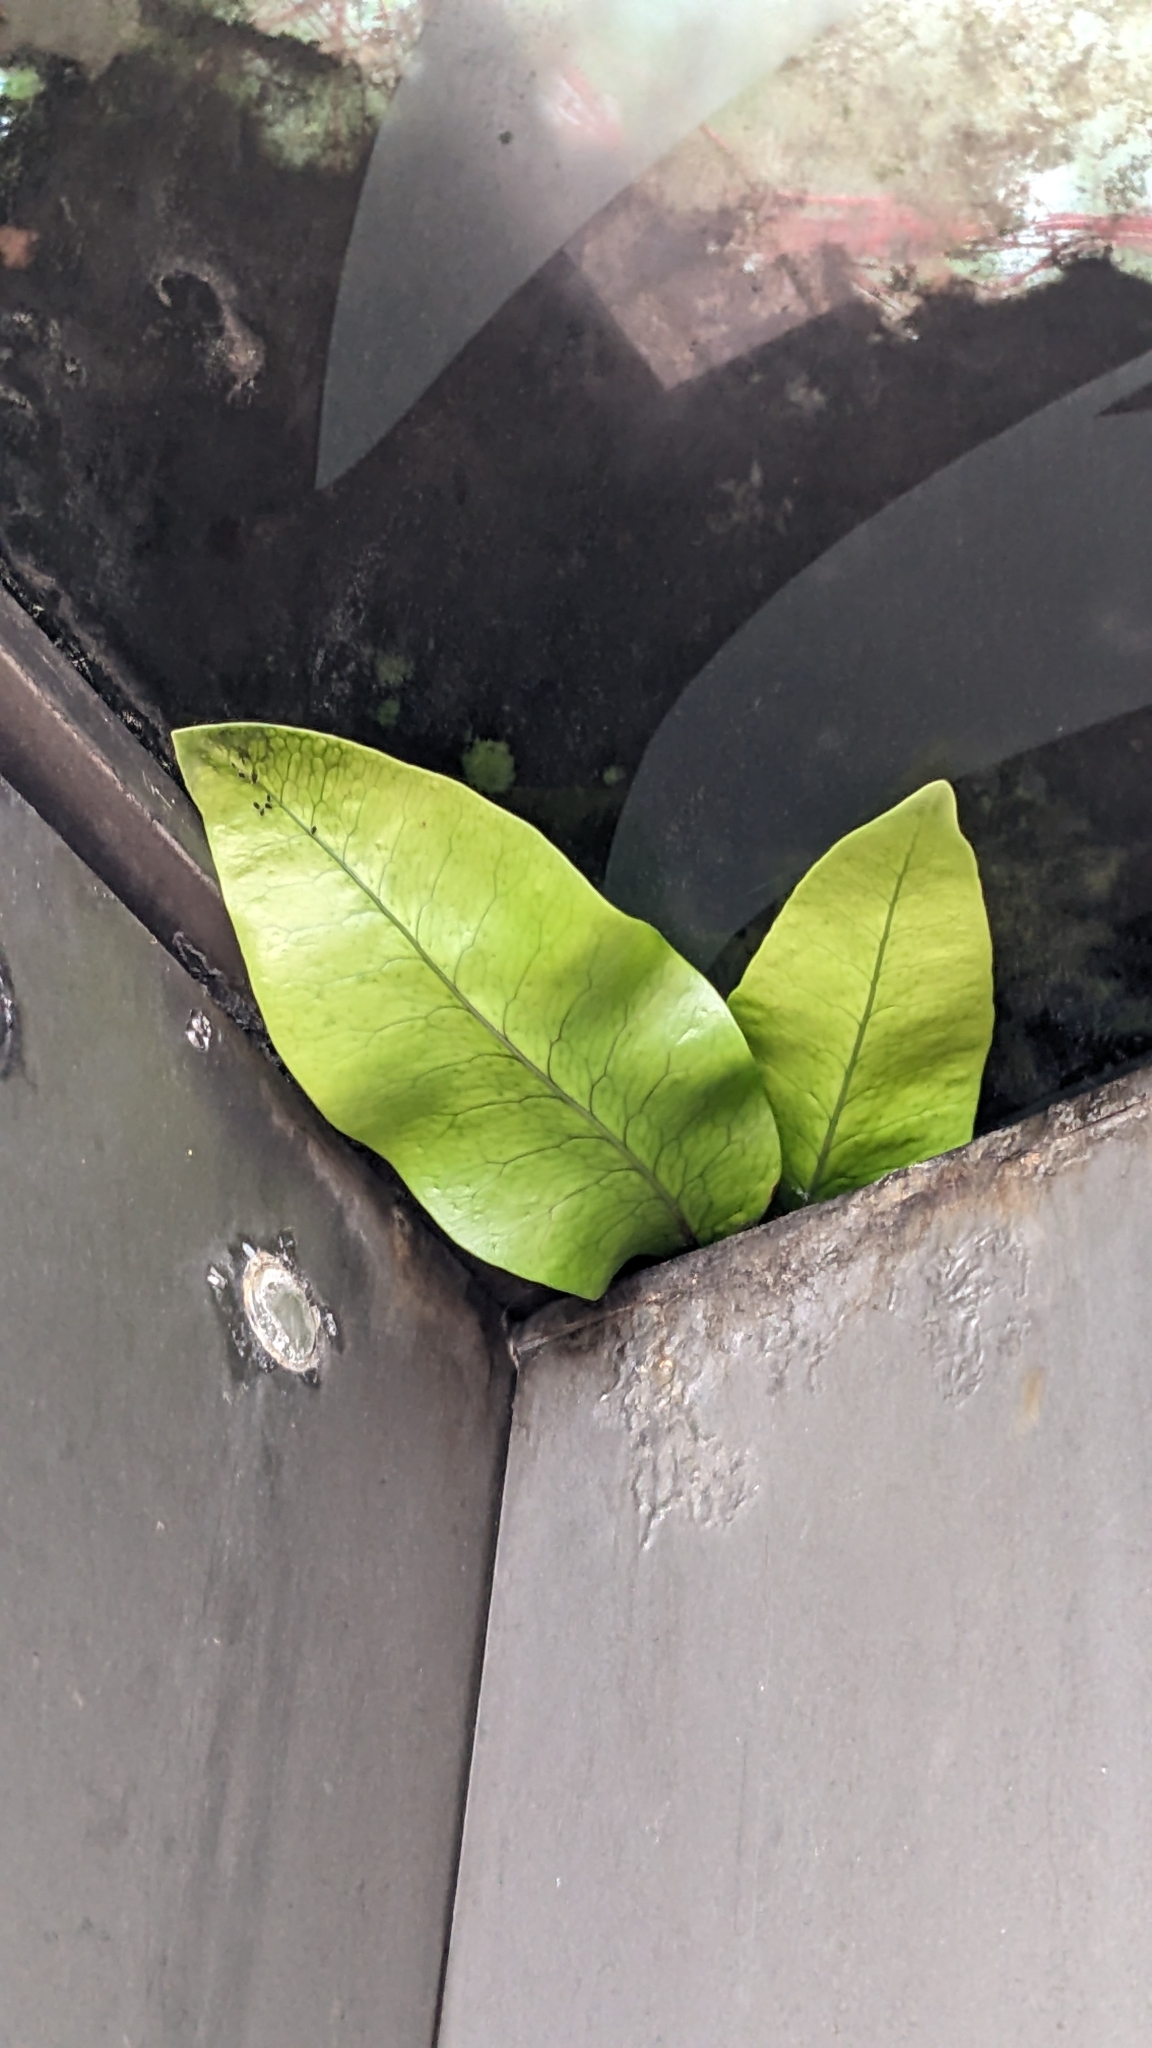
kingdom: Plantae
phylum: Tracheophyta
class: Polypodiopsida
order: Polypodiales
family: Polypodiaceae
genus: Lecanopteris
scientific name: Lecanopteris pustulata
